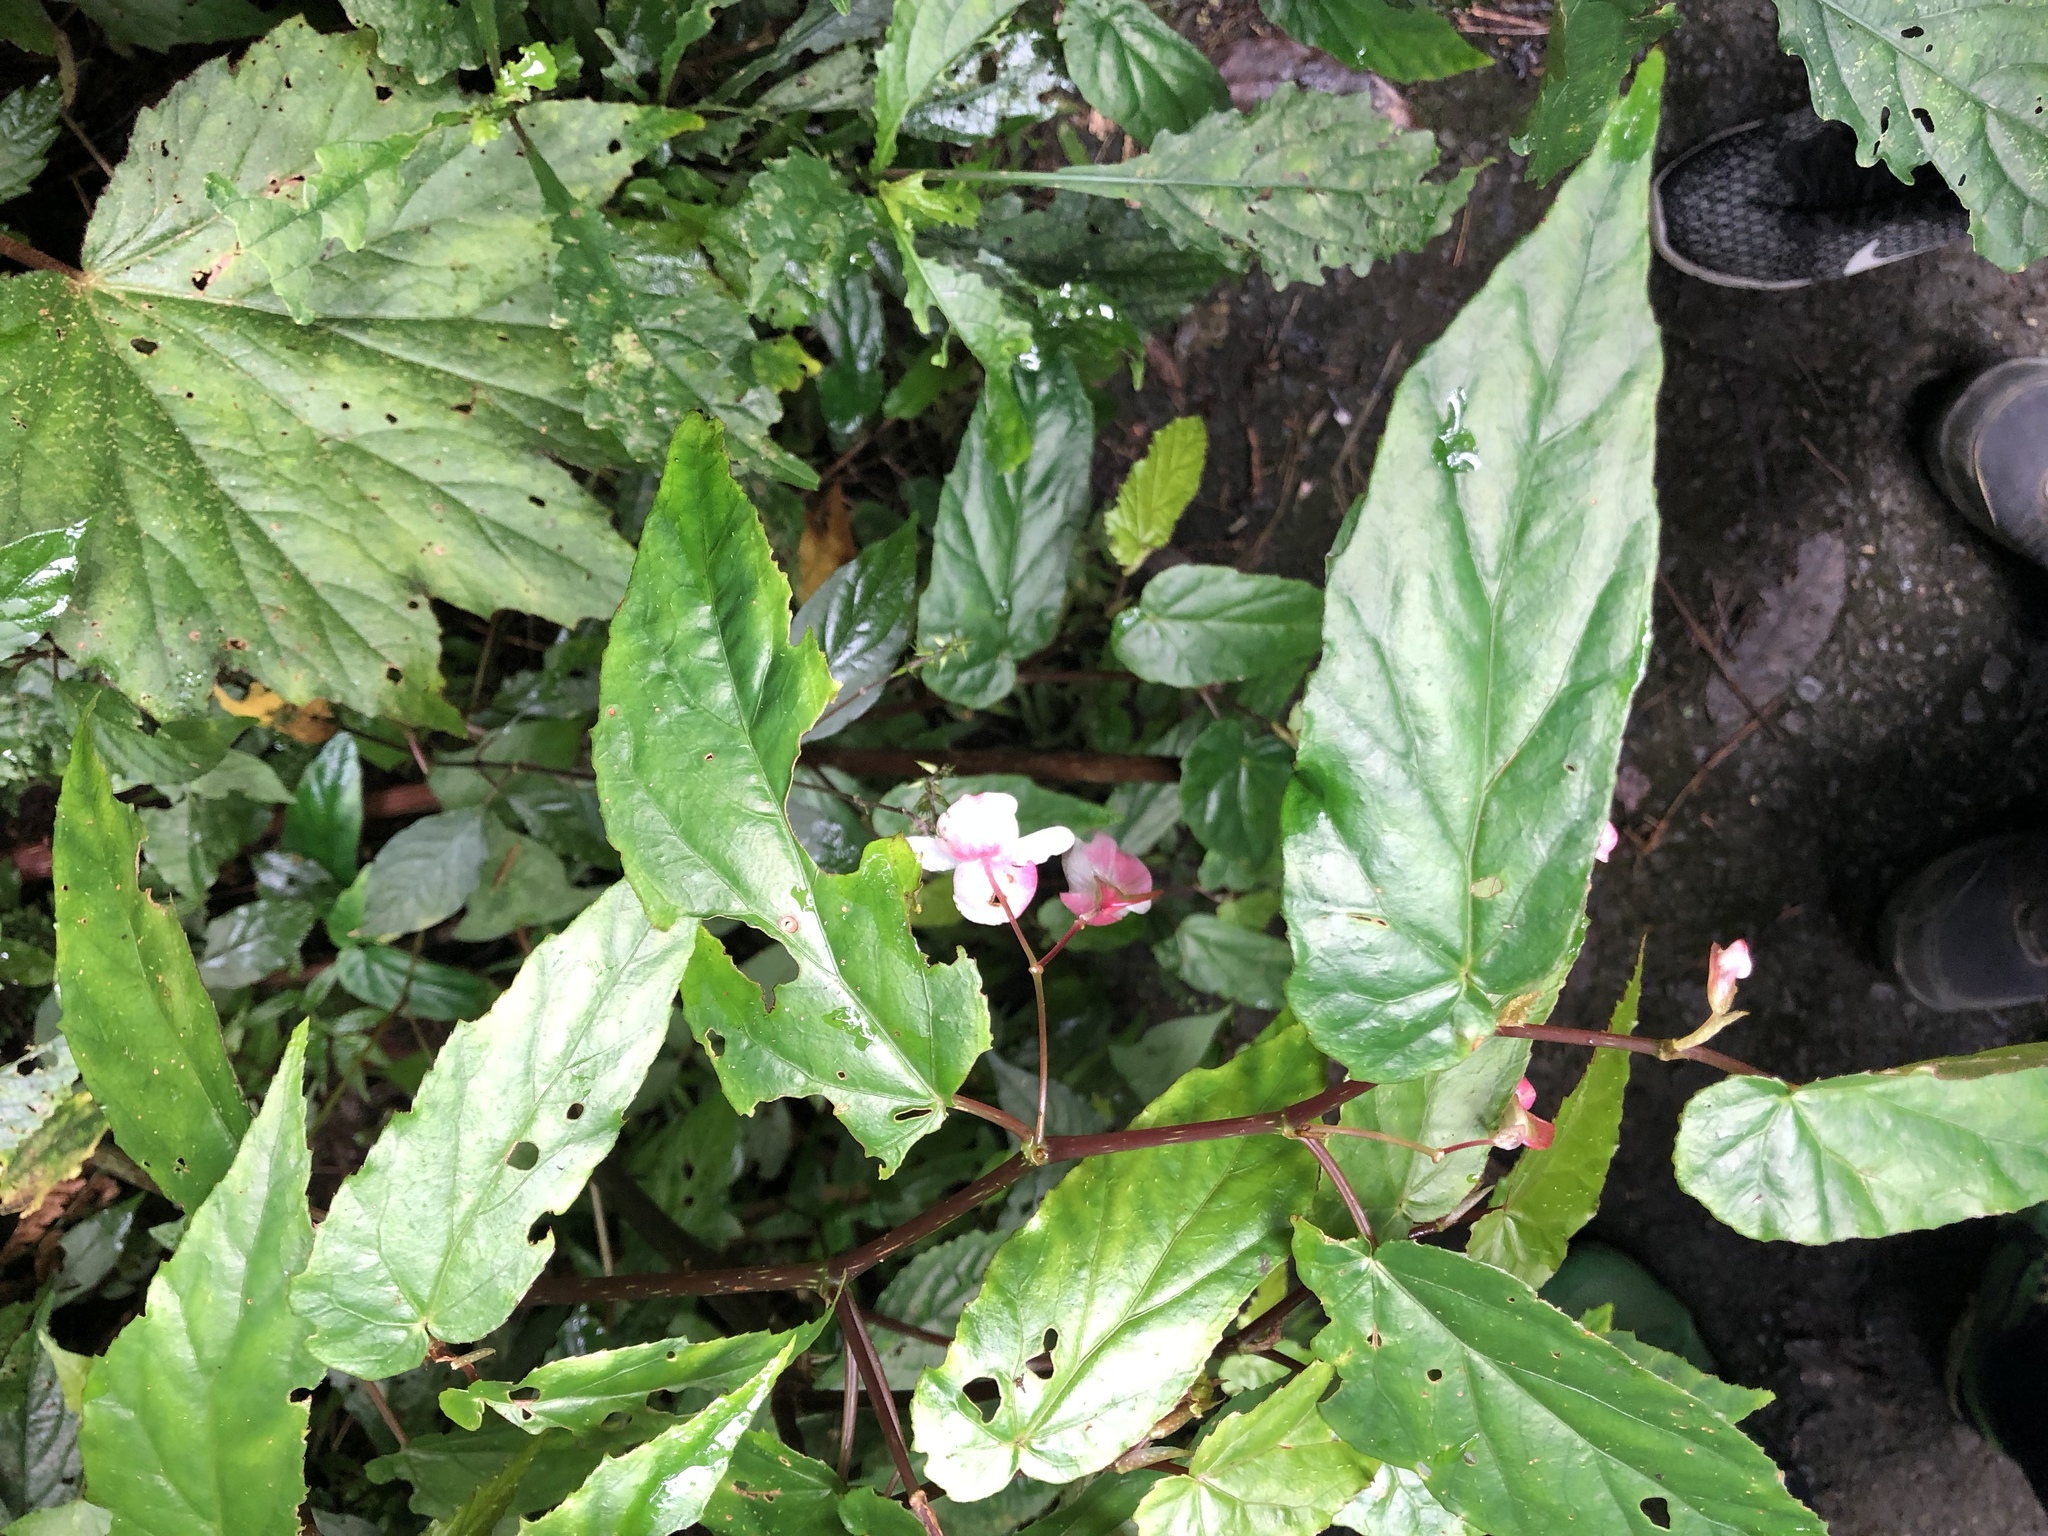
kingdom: Plantae
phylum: Tracheophyta
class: Magnoliopsida
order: Cucurbitales
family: Begoniaceae
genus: Begonia
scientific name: Begonia taiwaniana
